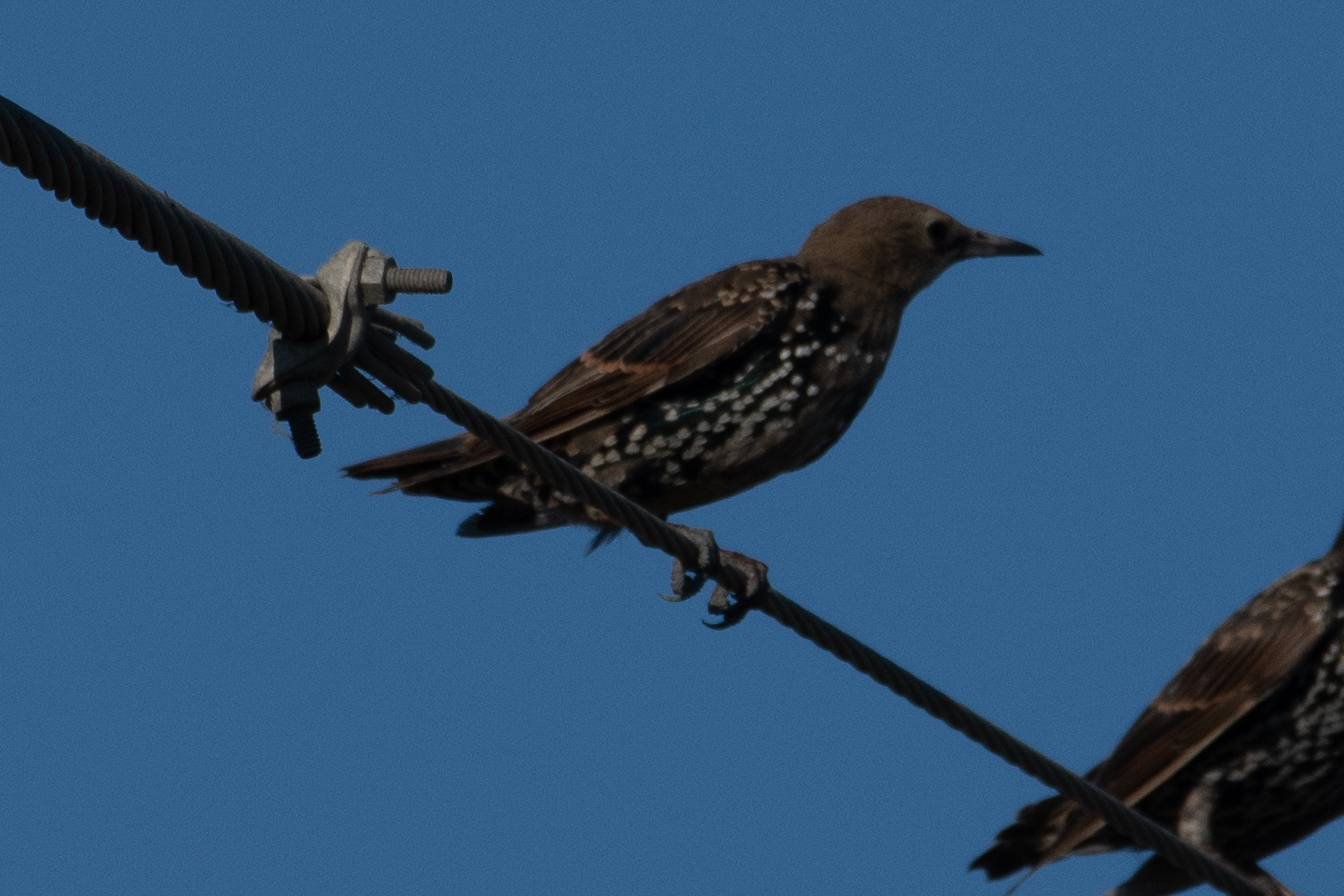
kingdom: Animalia
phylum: Chordata
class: Aves
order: Passeriformes
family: Sturnidae
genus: Sturnus
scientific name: Sturnus vulgaris
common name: Common starling
